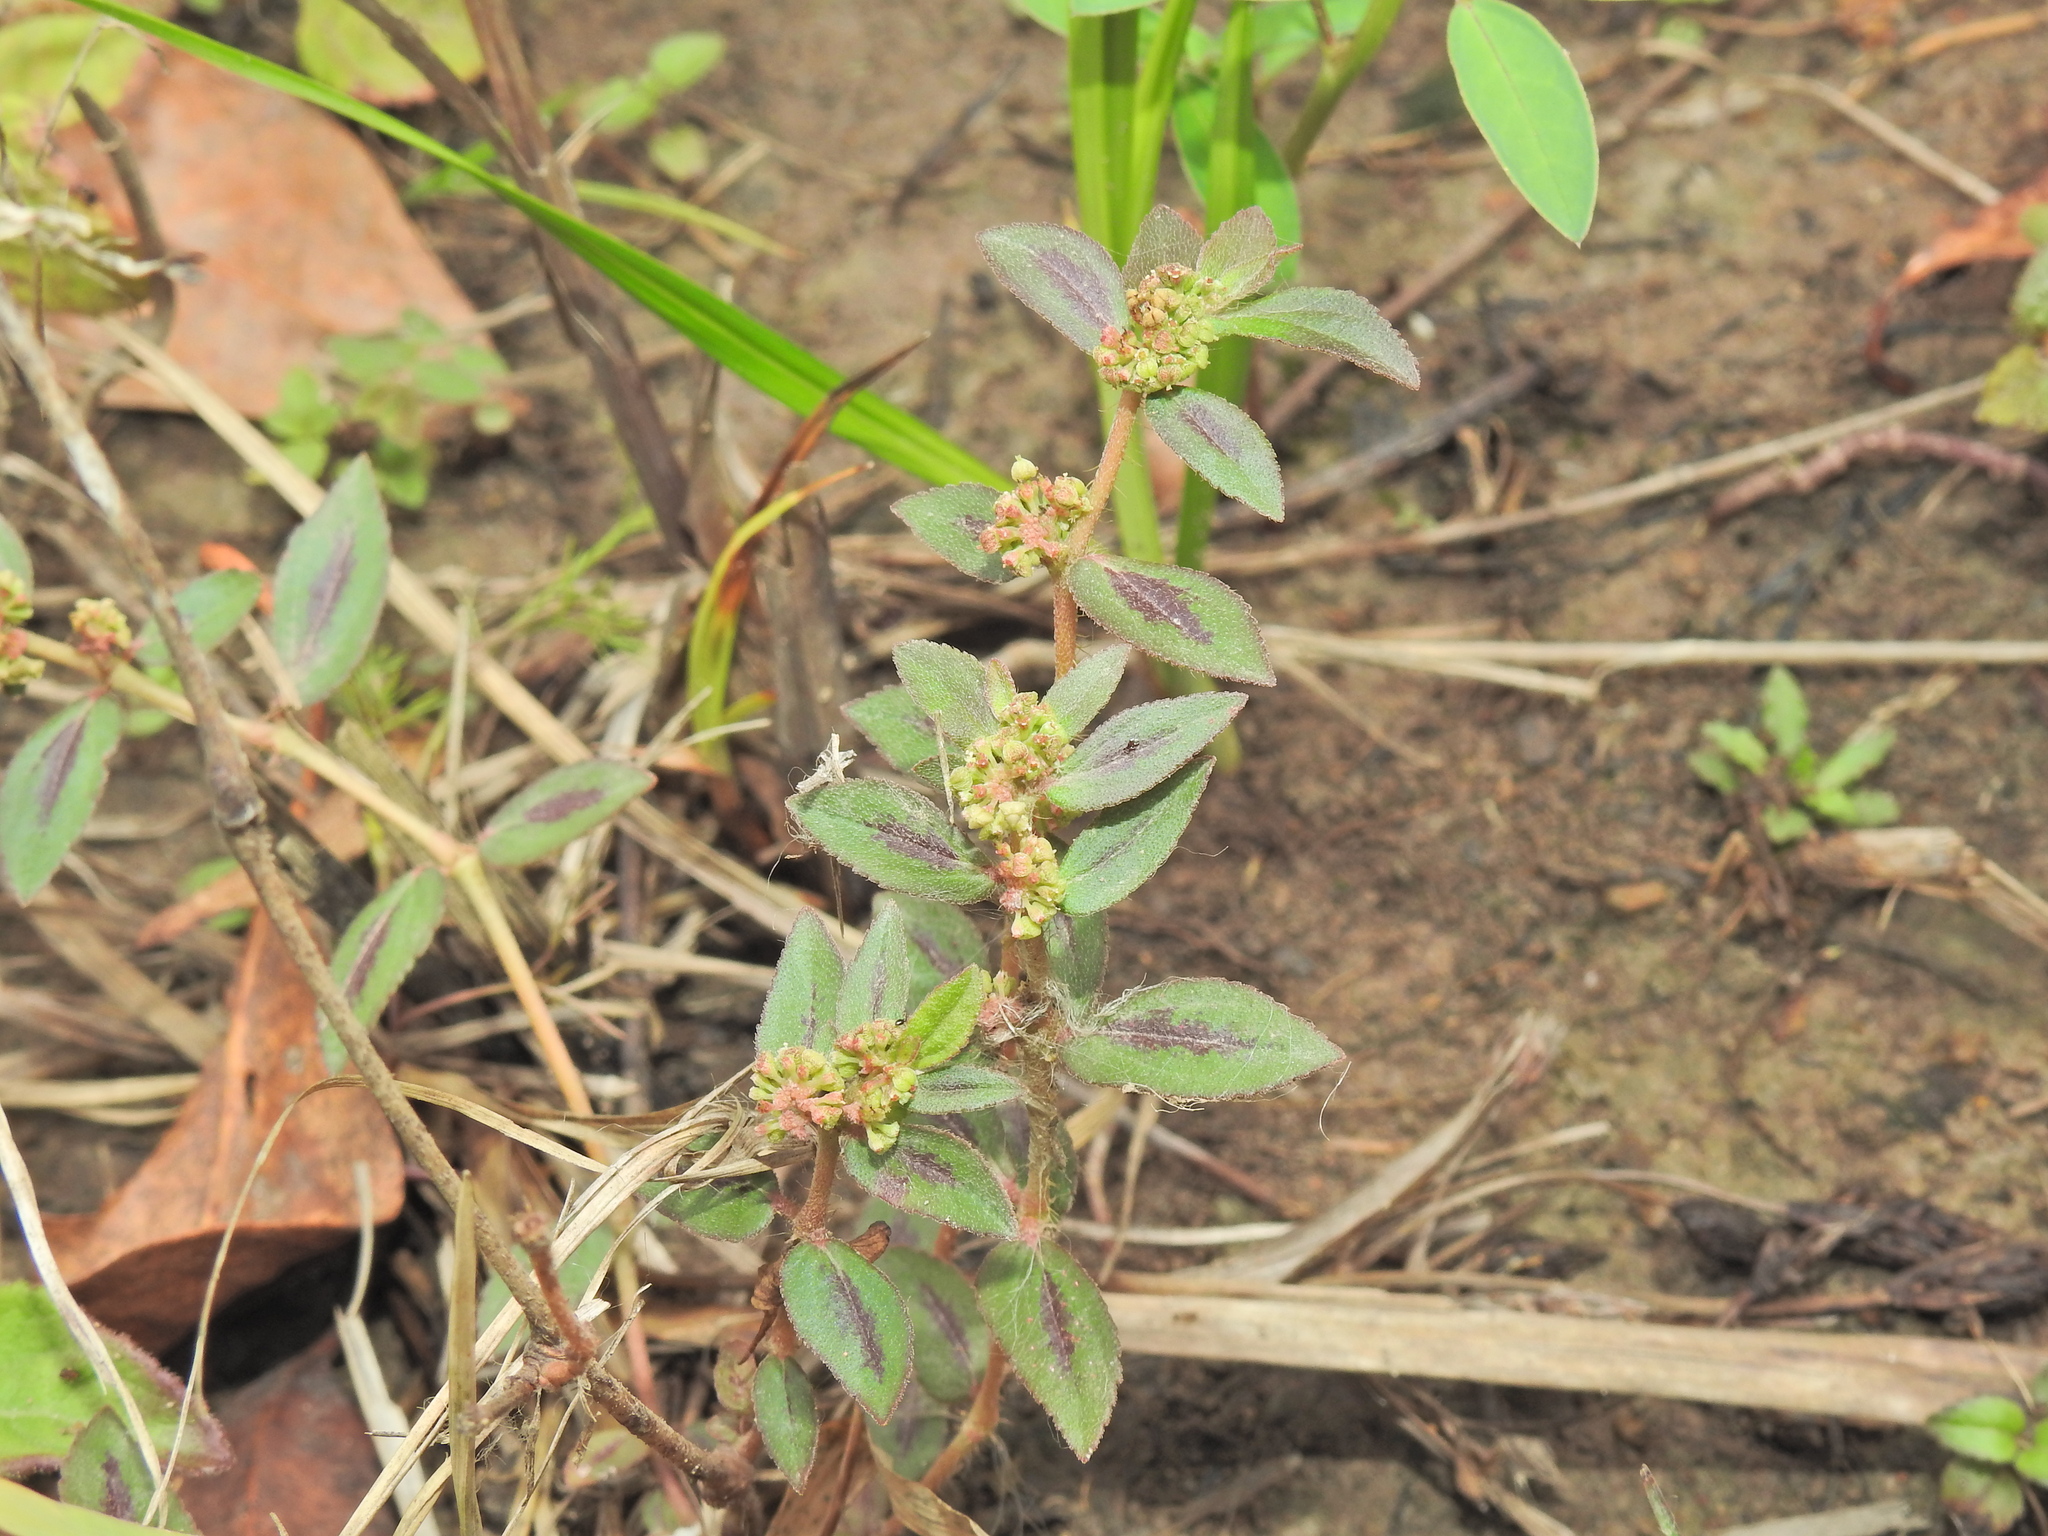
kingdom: Plantae
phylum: Tracheophyta
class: Magnoliopsida
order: Malpighiales
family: Euphorbiaceae
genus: Euphorbia
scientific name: Euphorbia hirta
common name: Pillpod sandmat
